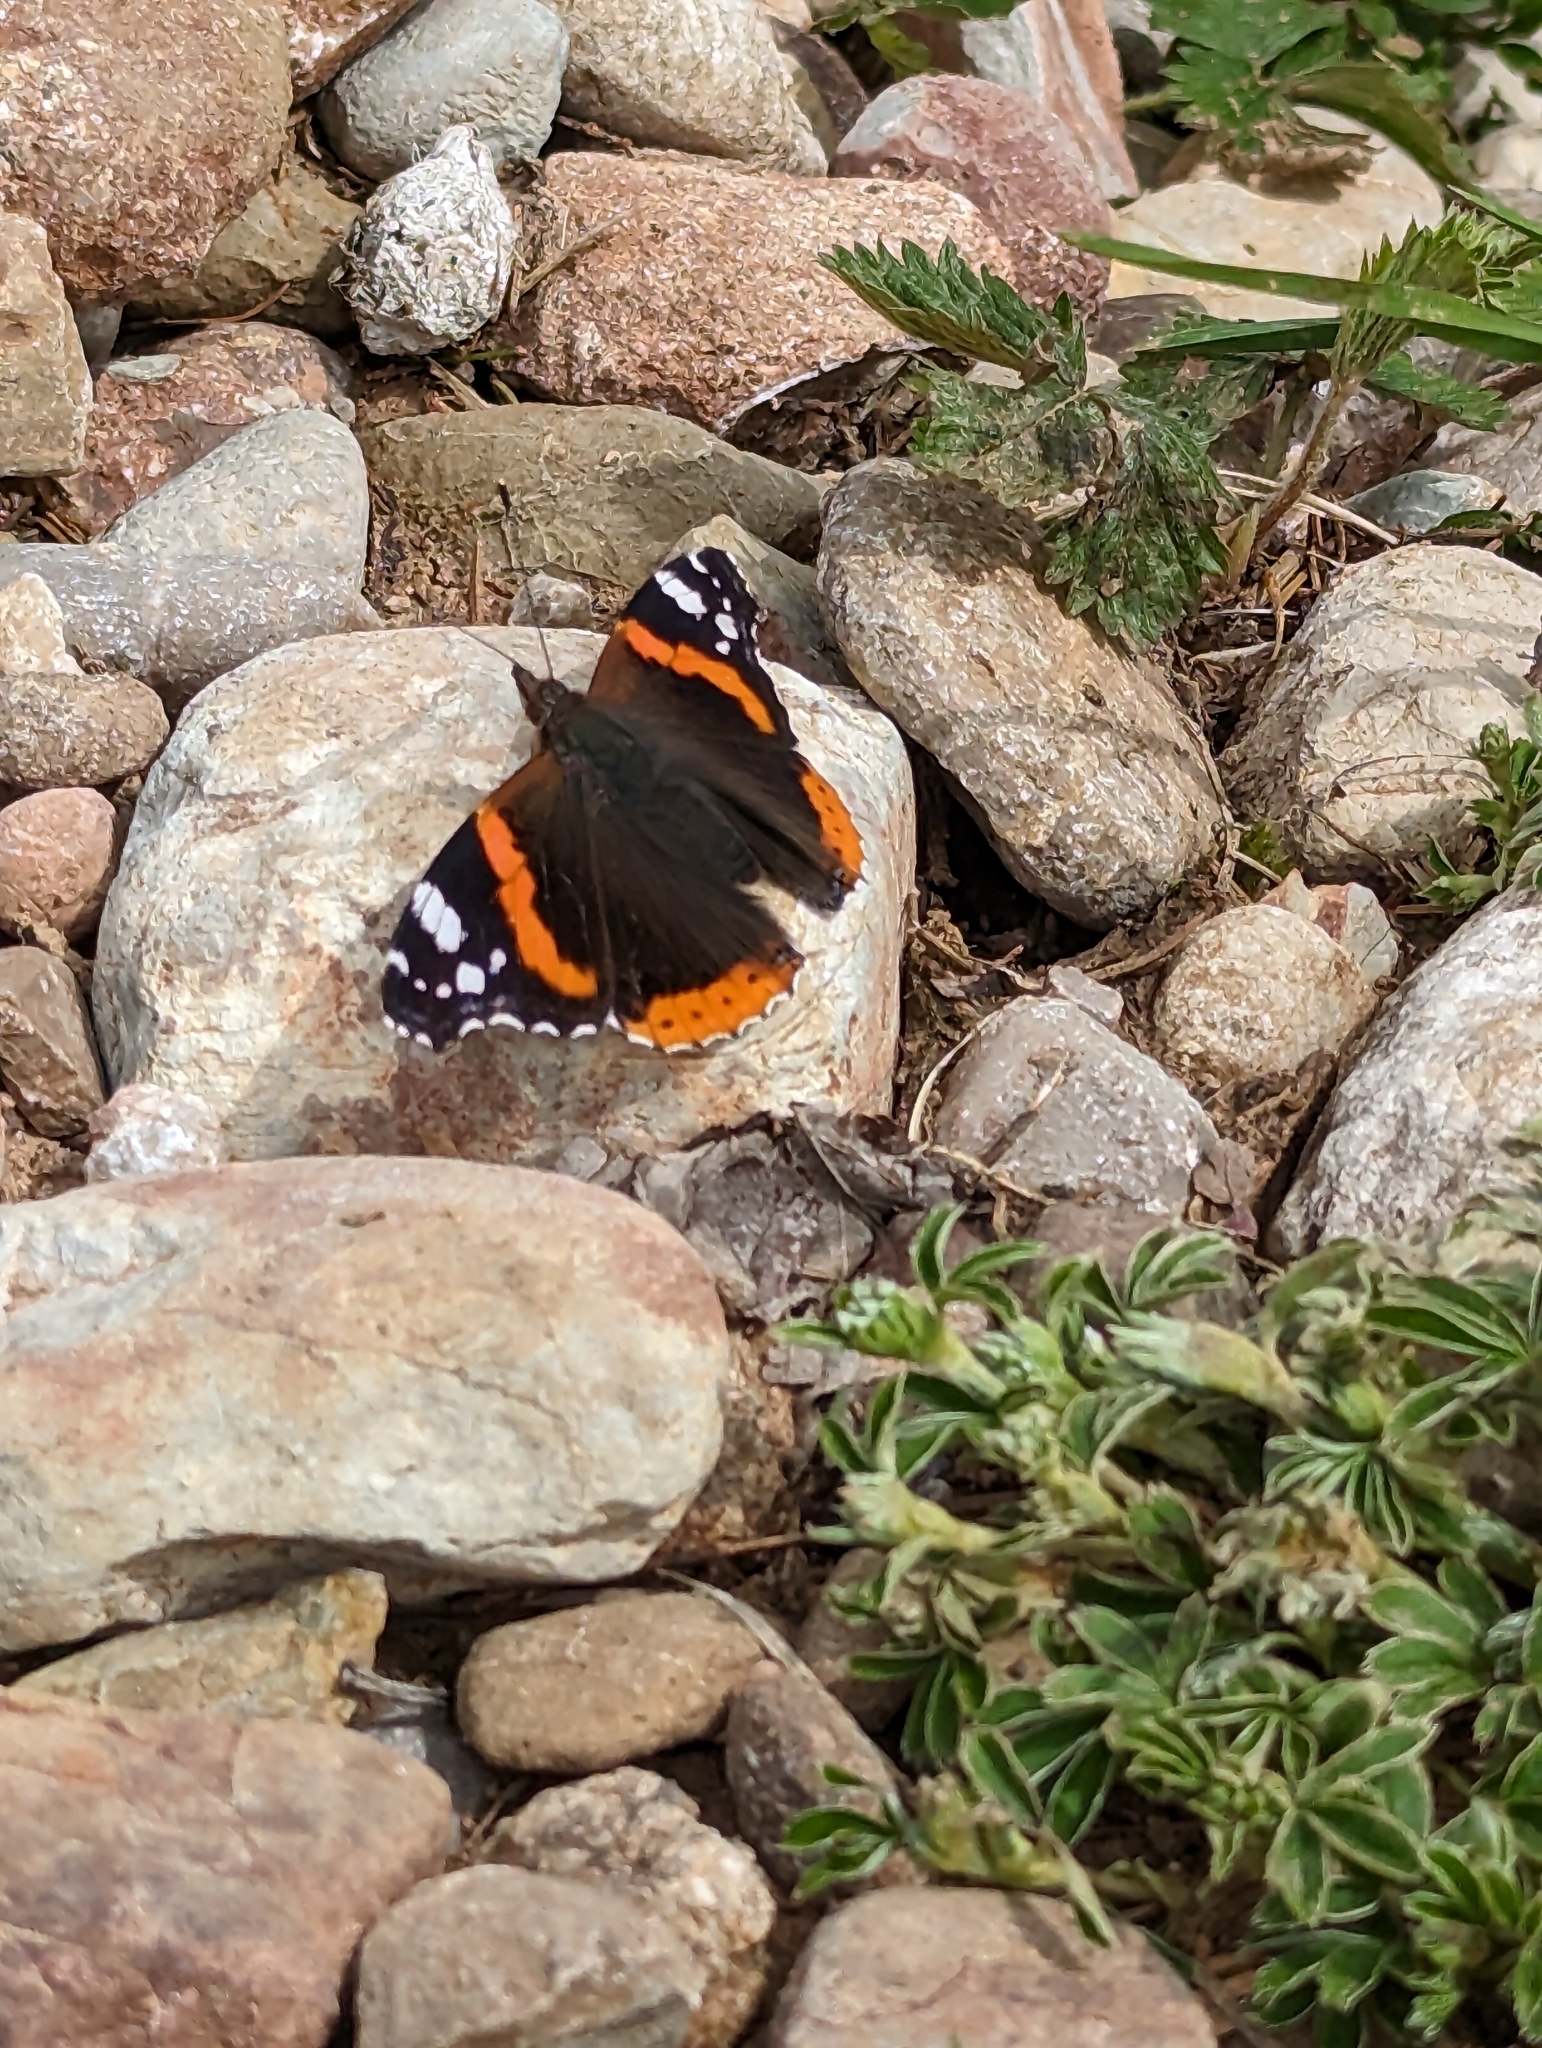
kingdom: Animalia
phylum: Arthropoda
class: Insecta
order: Lepidoptera
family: Nymphalidae
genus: Vanessa
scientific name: Vanessa atalanta
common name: Red admiral
